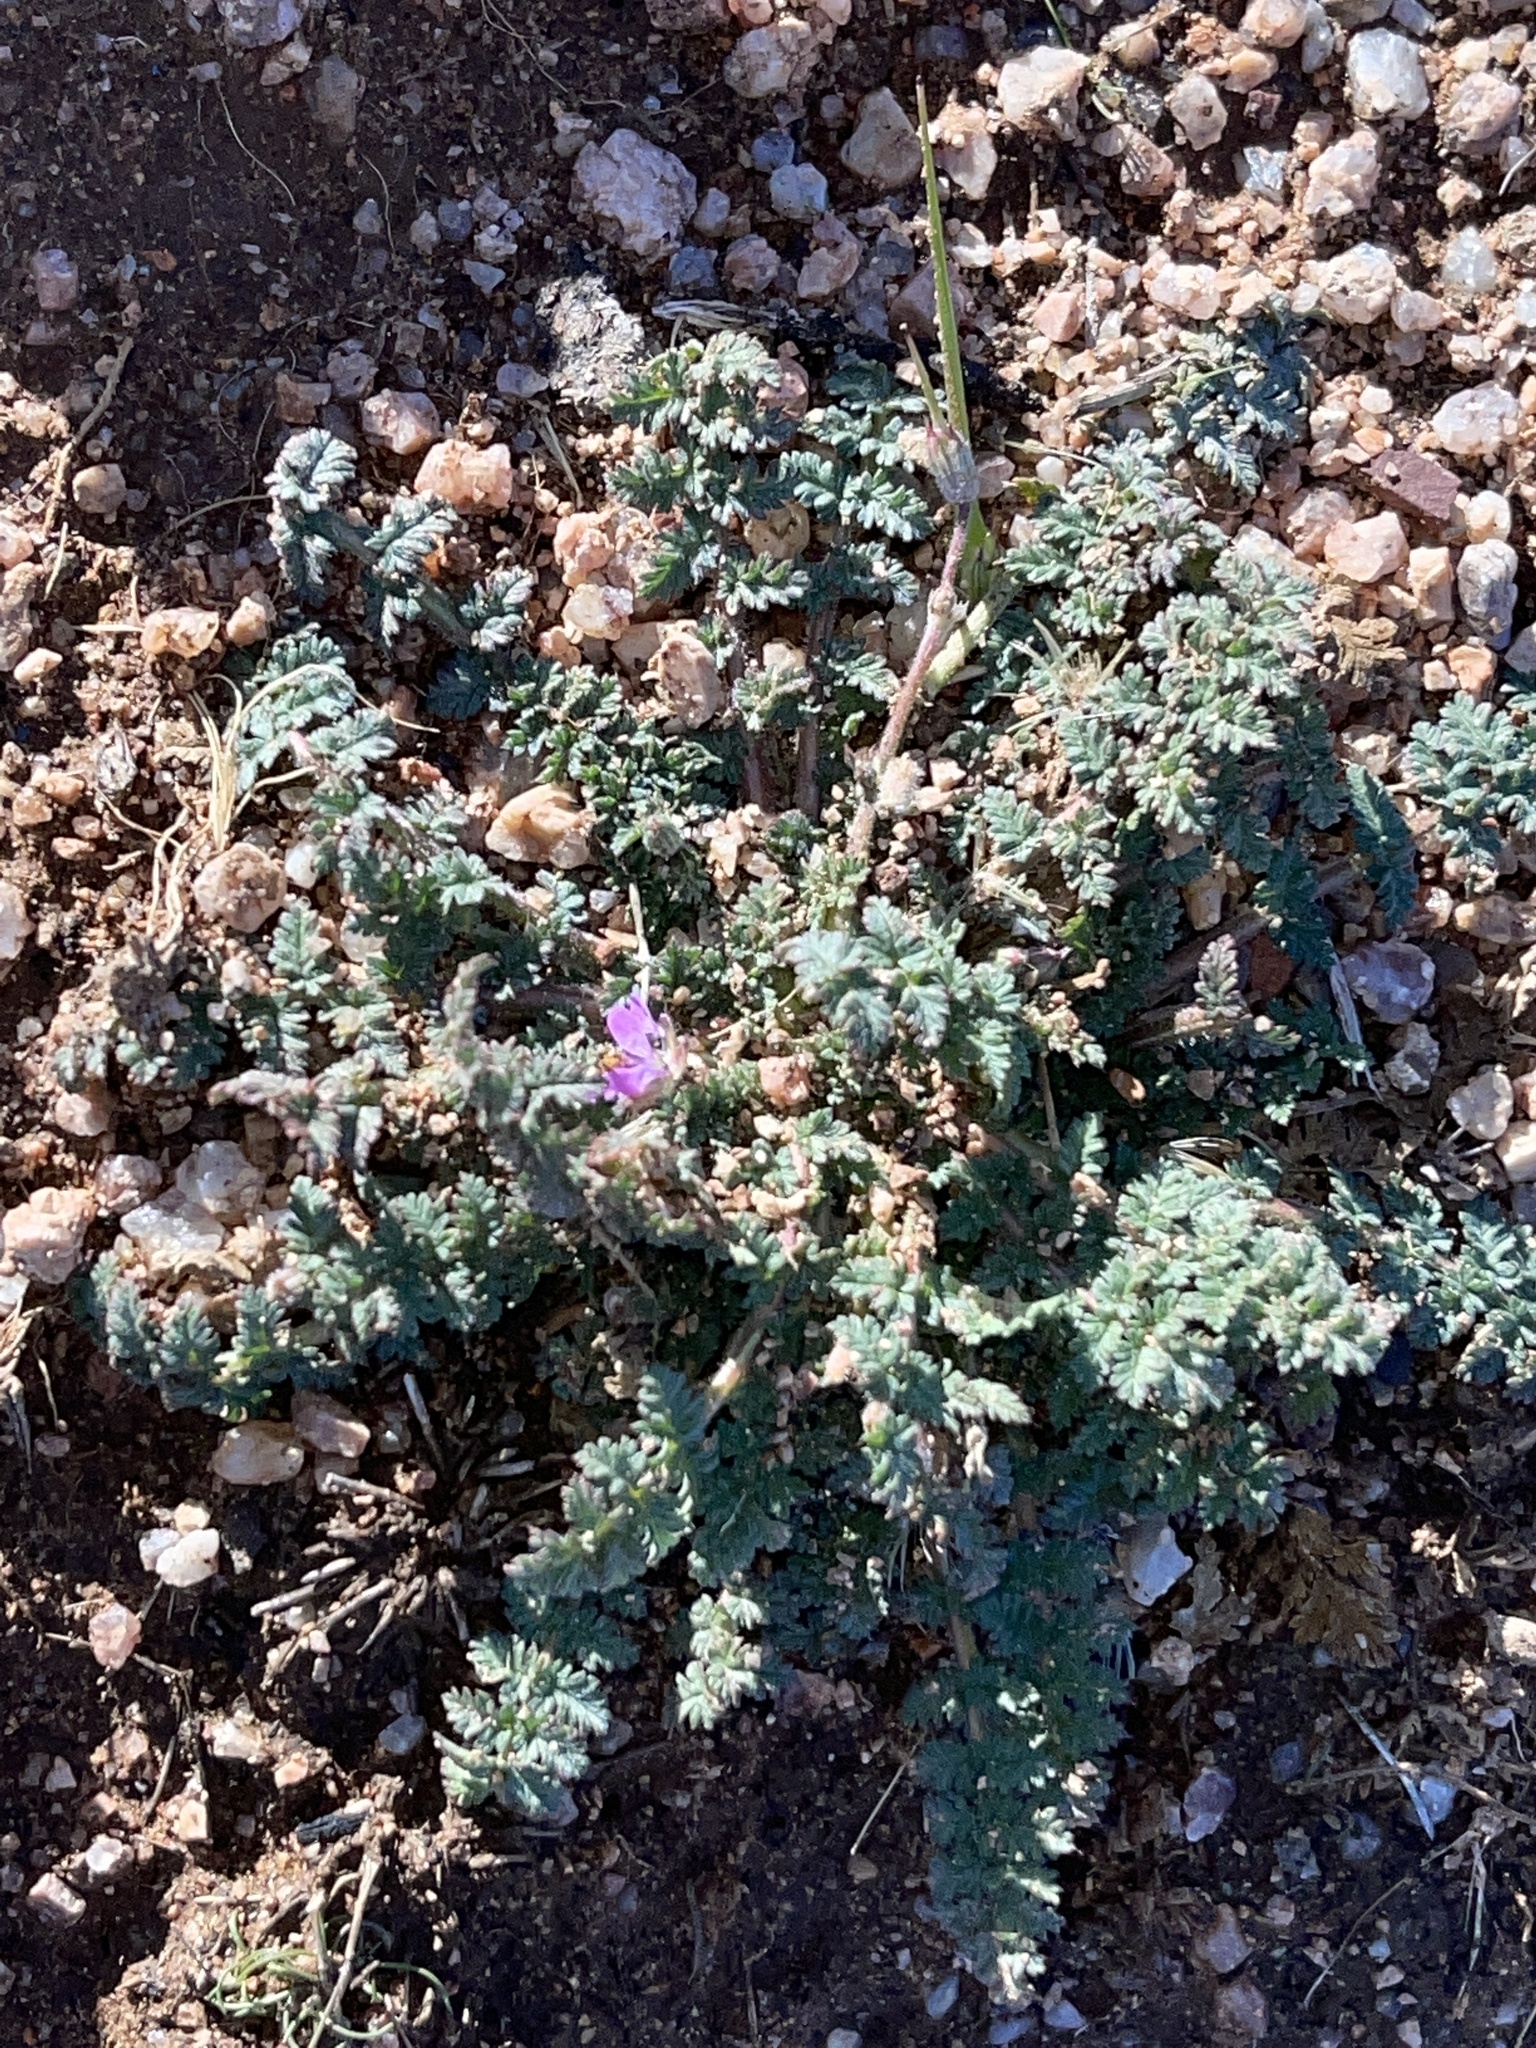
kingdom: Plantae
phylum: Tracheophyta
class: Magnoliopsida
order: Geraniales
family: Geraniaceae
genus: Erodium
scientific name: Erodium cicutarium
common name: Common stork's-bill
